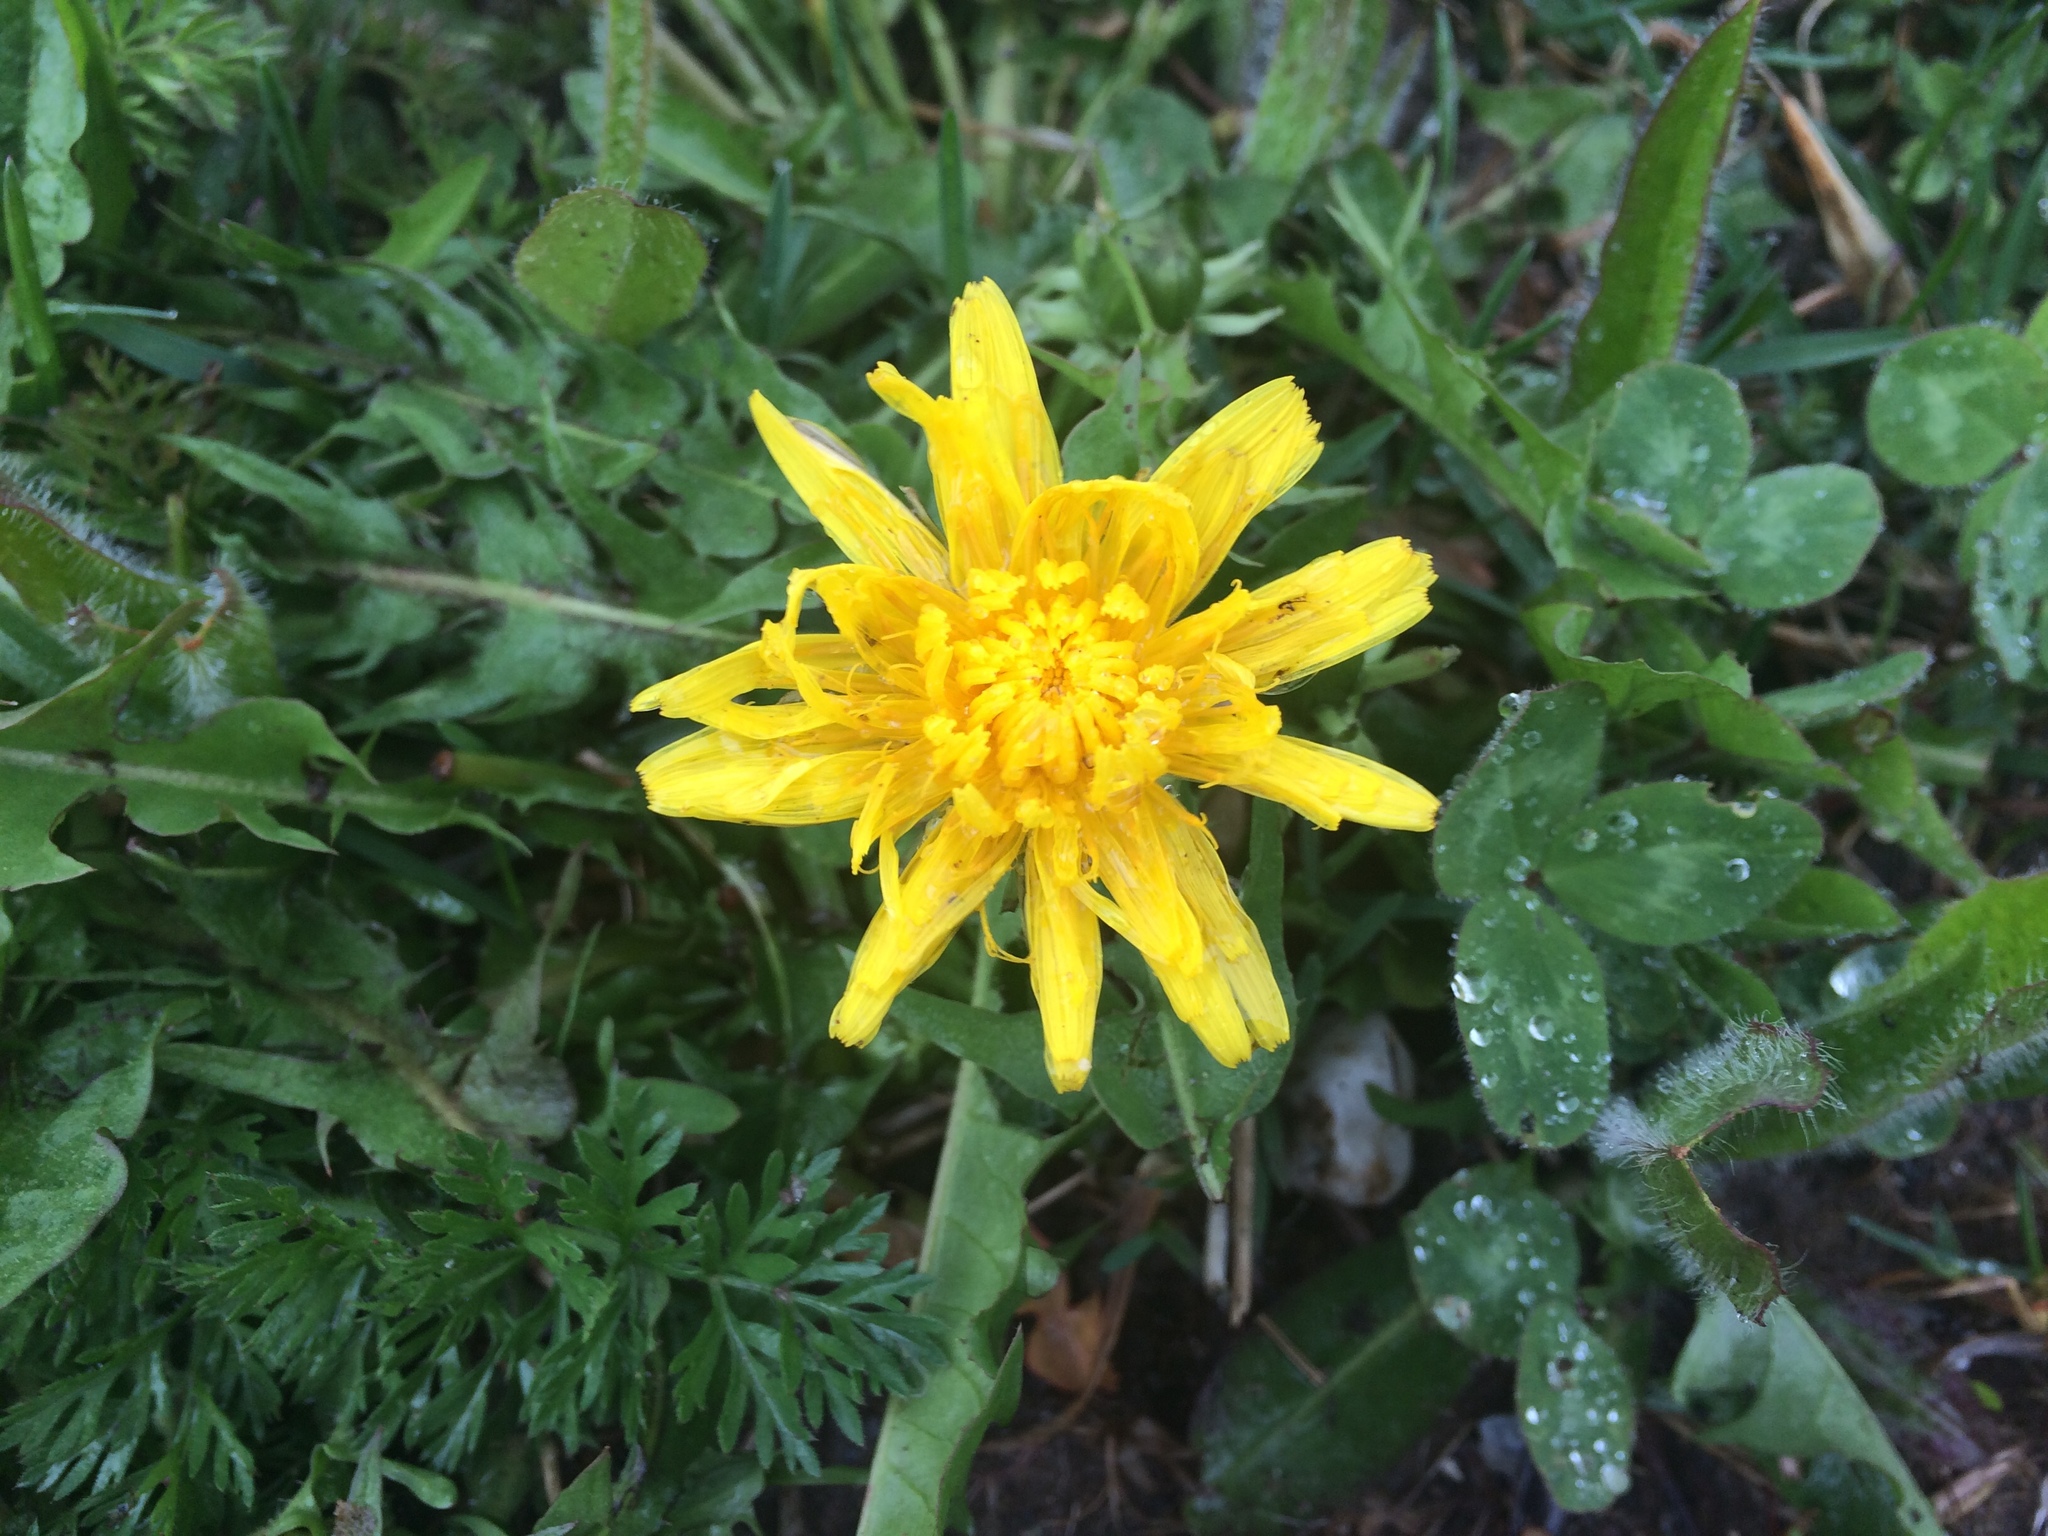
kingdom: Plantae
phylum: Tracheophyta
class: Magnoliopsida
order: Asterales
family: Asteraceae
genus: Taraxacum
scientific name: Taraxacum officinale
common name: Common dandelion
